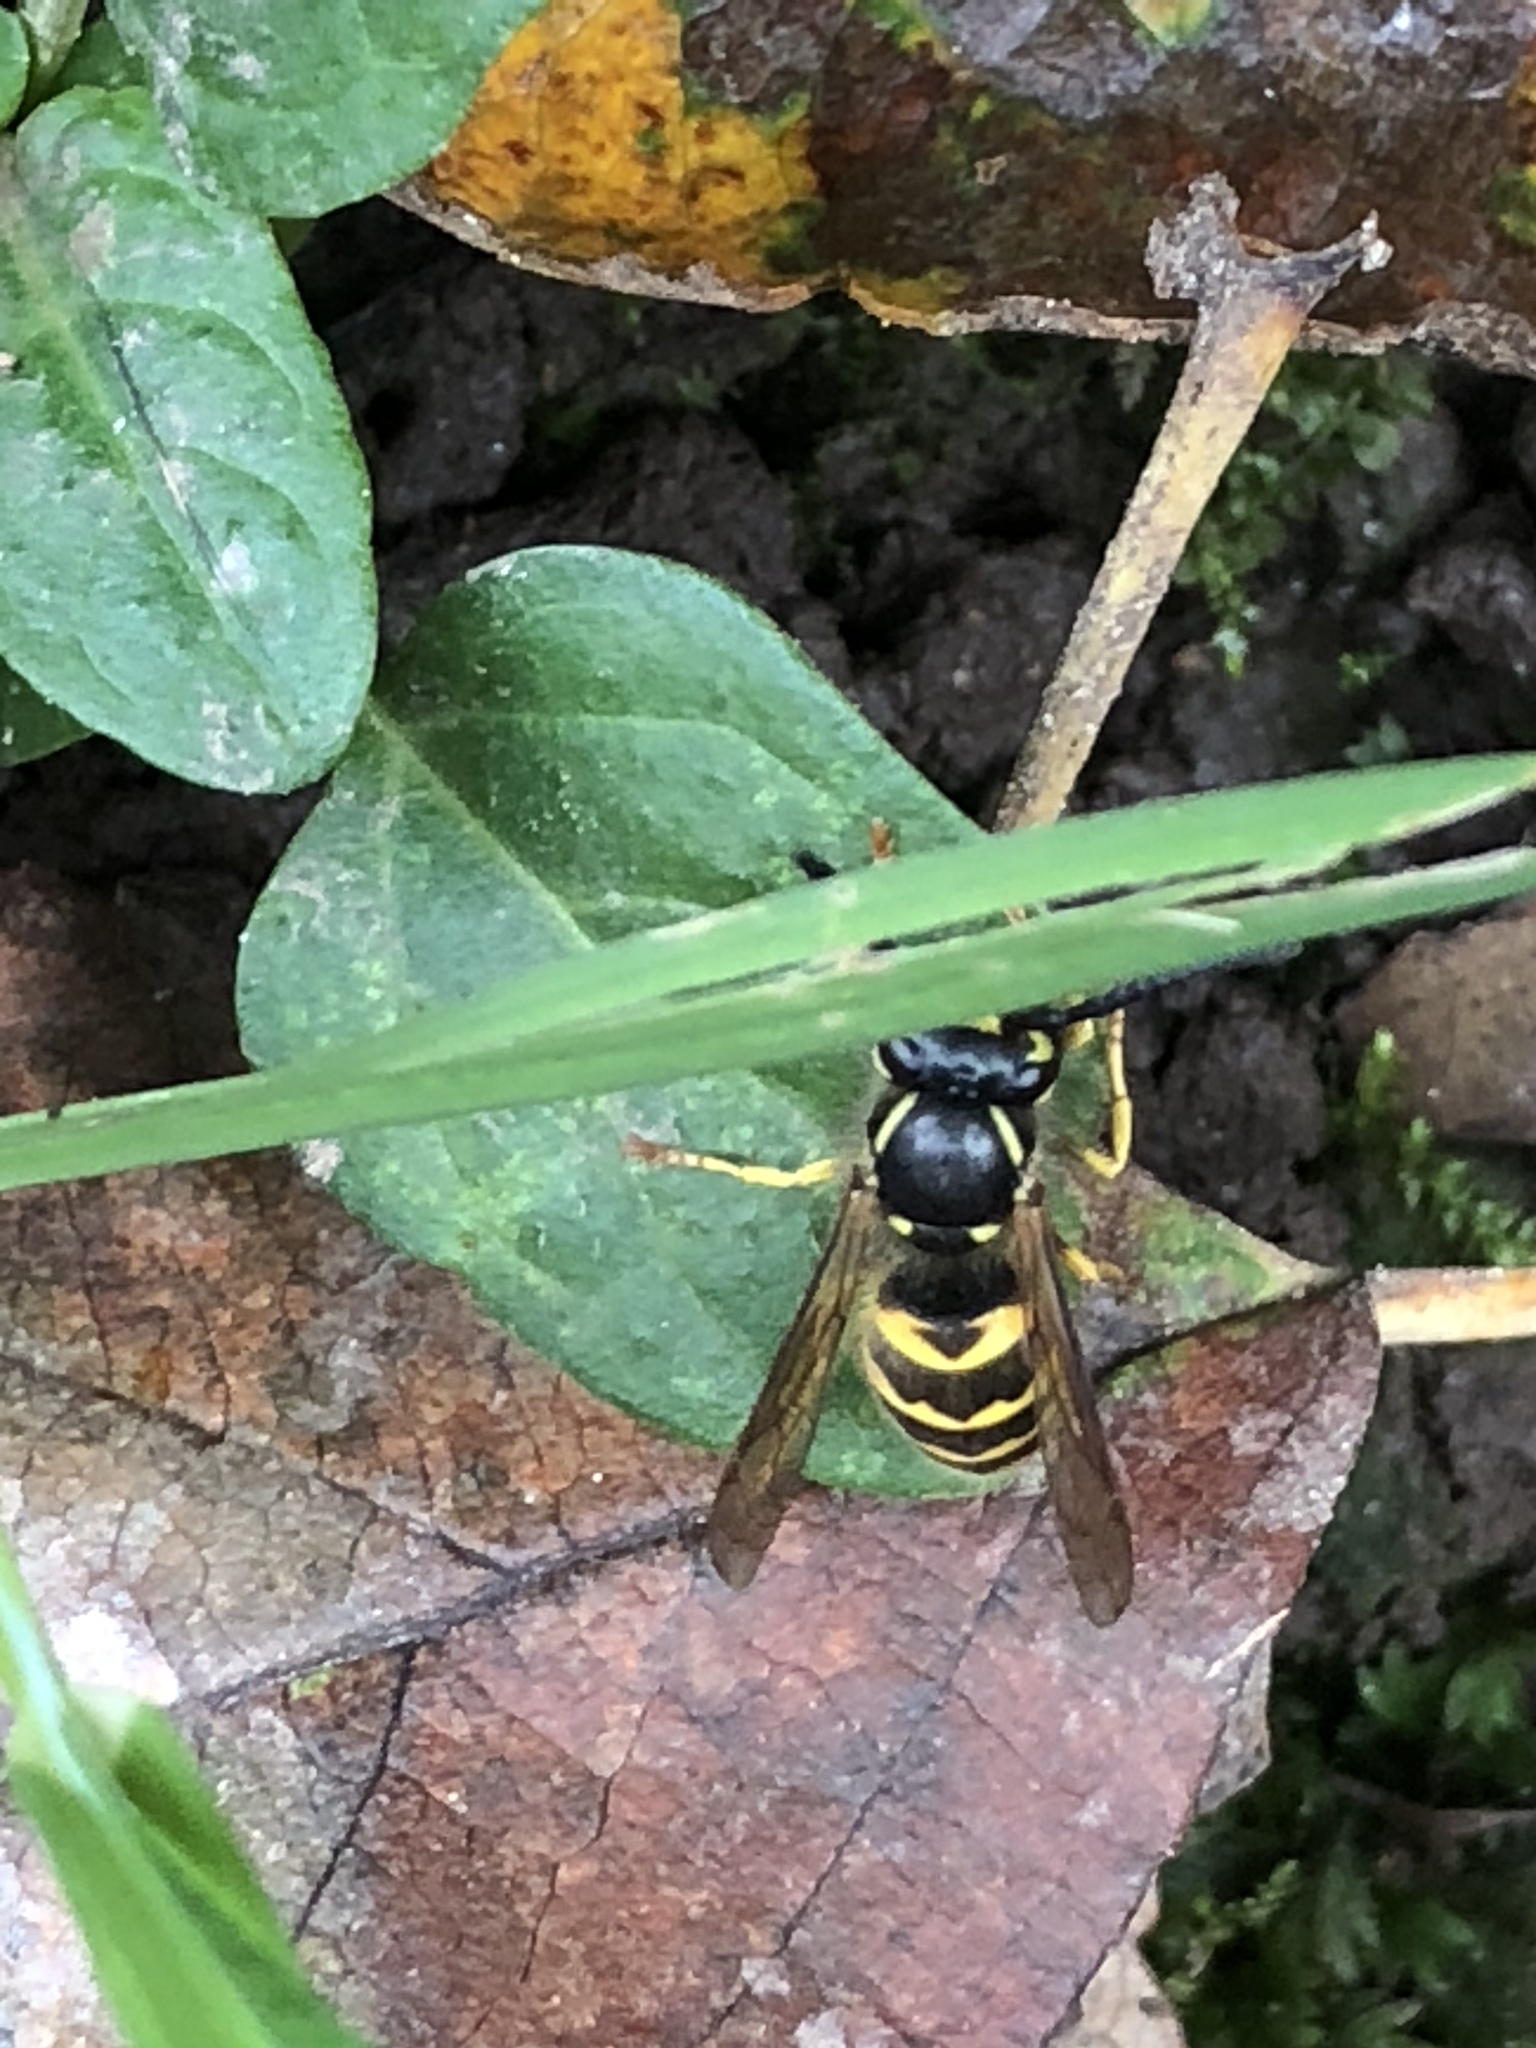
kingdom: Animalia
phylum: Arthropoda
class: Insecta
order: Hymenoptera
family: Vespidae
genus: Vespula
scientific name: Vespula alascensis
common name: Alaska yellowjacket
